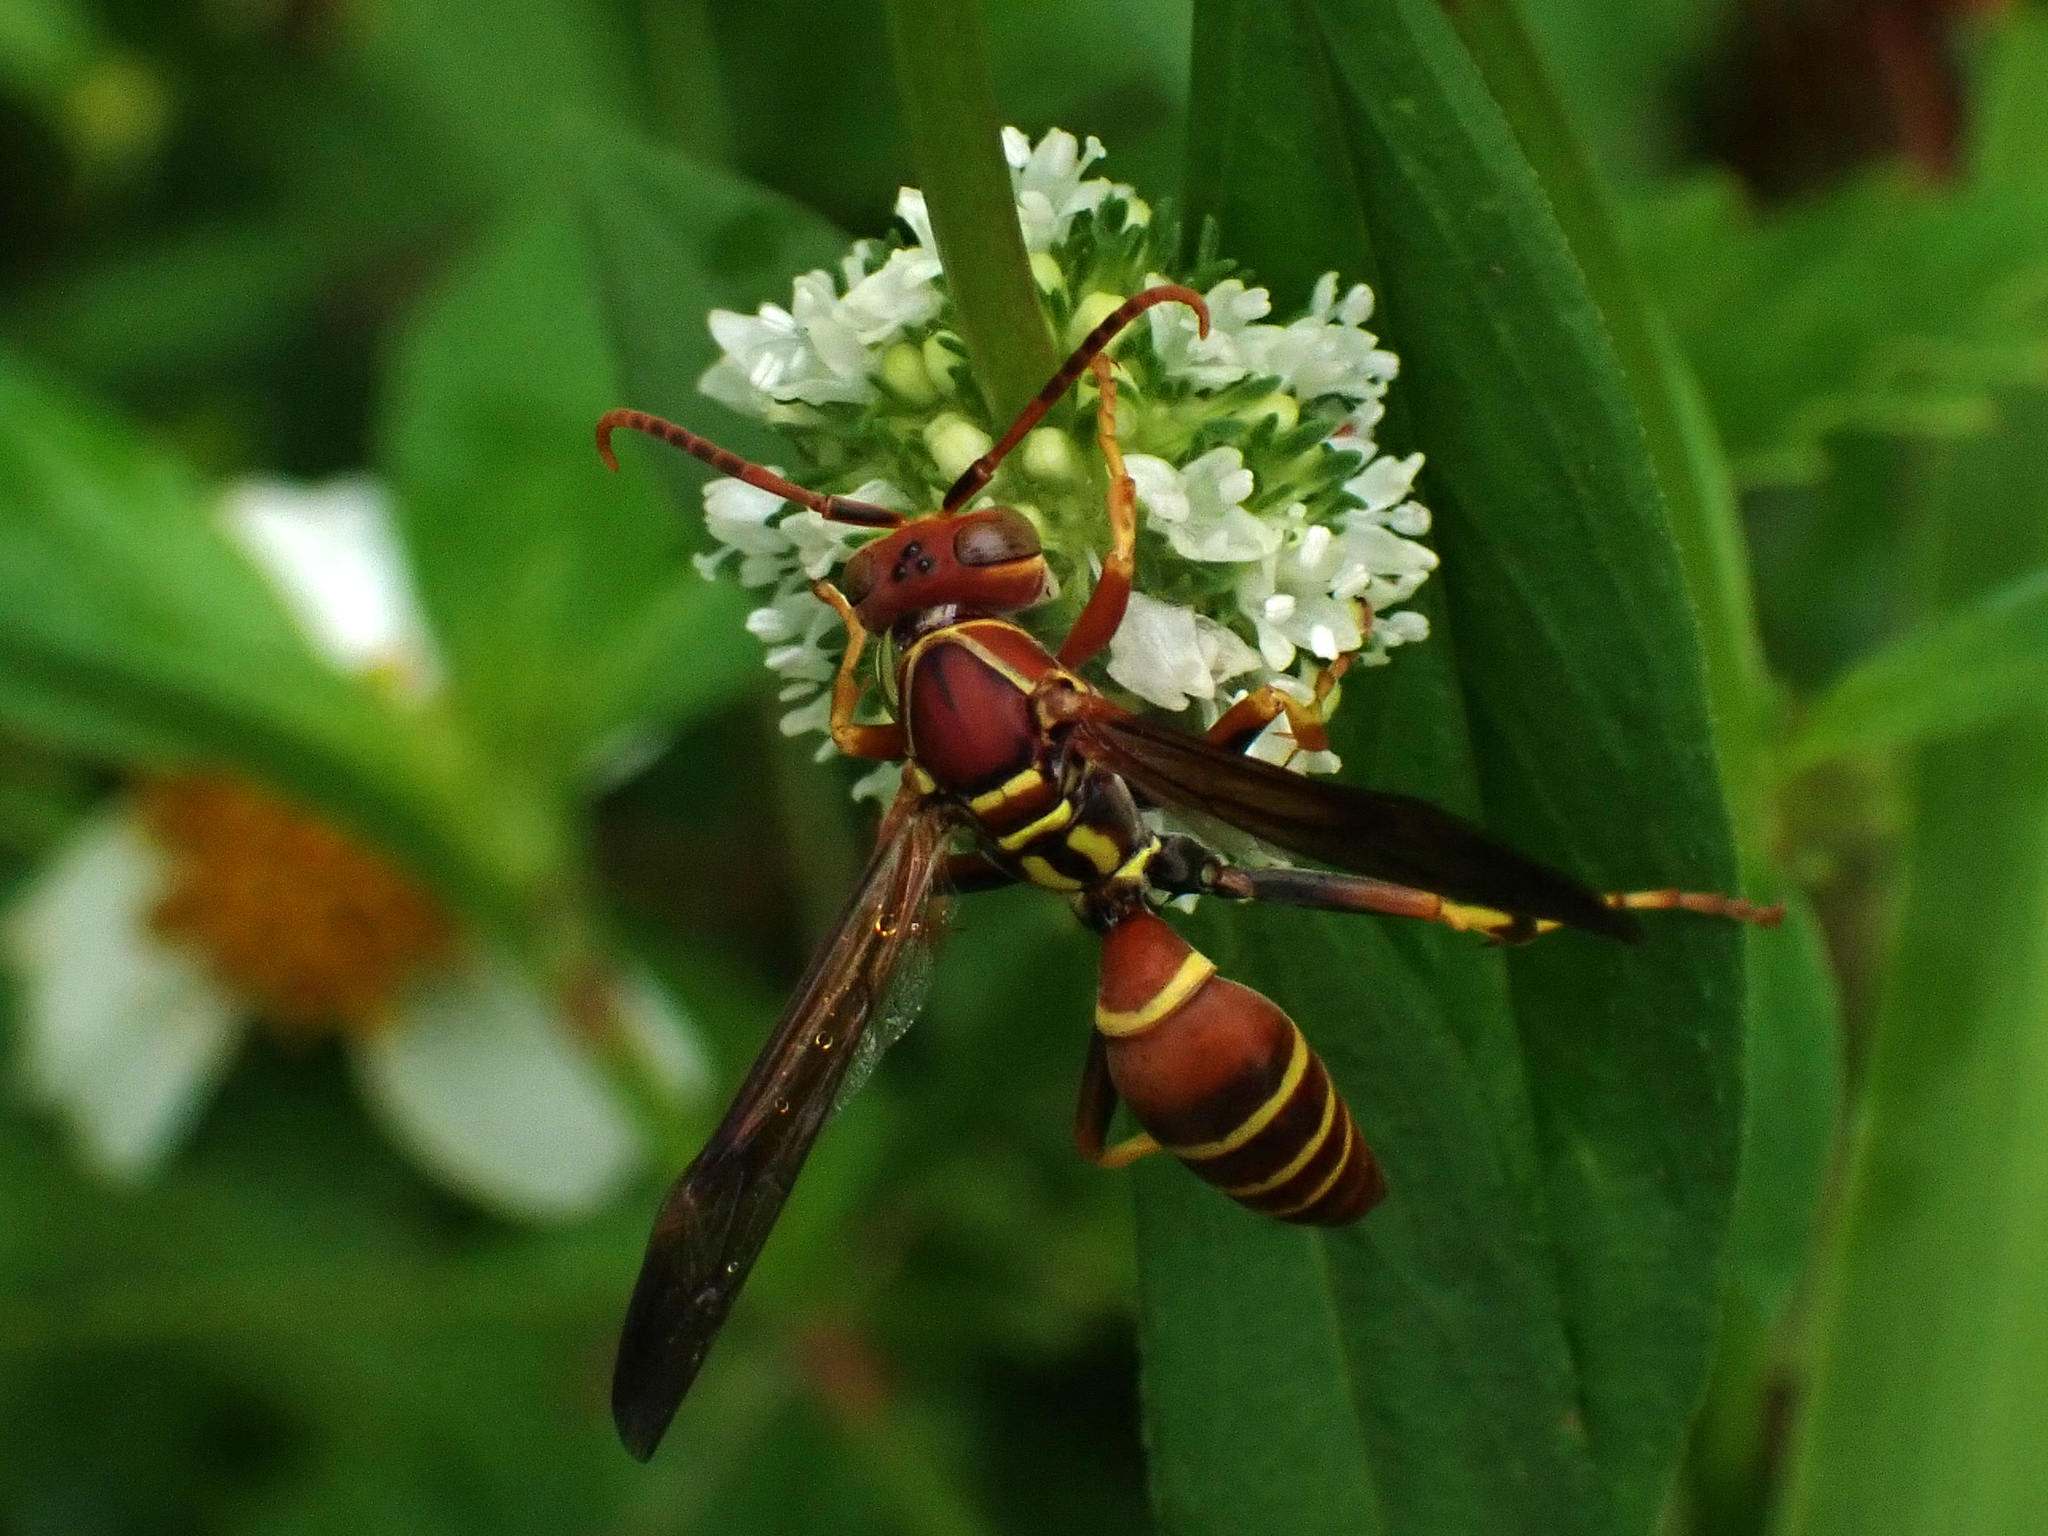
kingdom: Animalia
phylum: Arthropoda
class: Insecta
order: Hymenoptera
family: Eumenidae
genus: Polistes
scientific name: Polistes dorsalis
